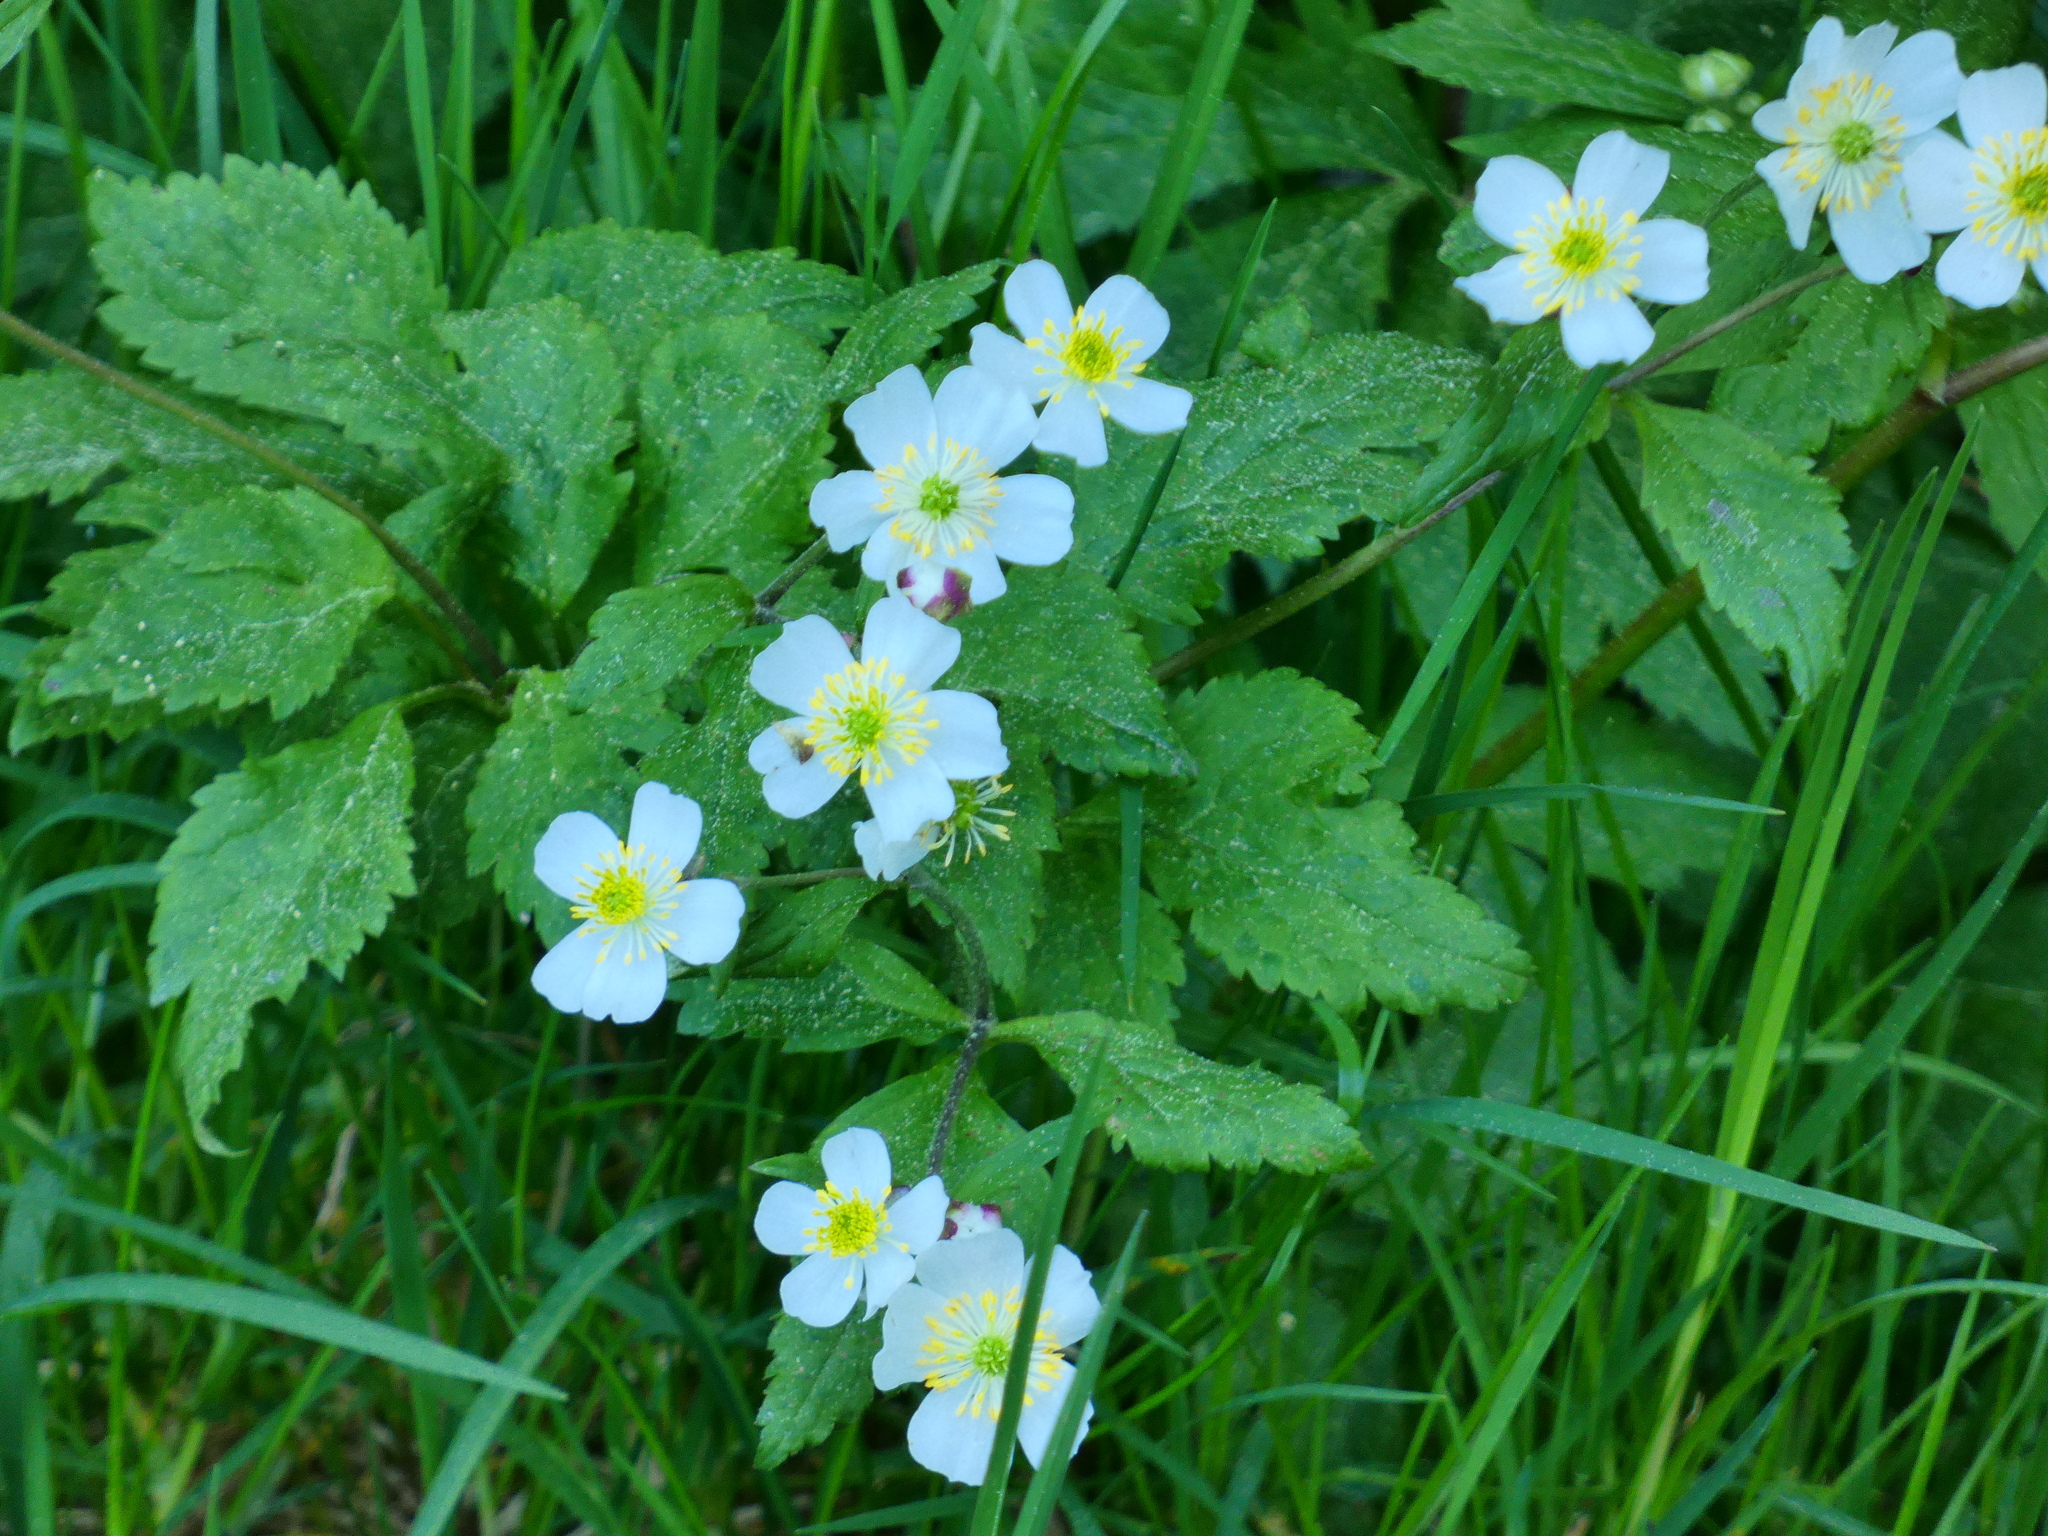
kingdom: Plantae
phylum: Tracheophyta
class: Magnoliopsida
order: Ranunculales
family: Ranunculaceae
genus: Ranunculus
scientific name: Ranunculus aconitifolius
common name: Aconite-leaved buttercup
